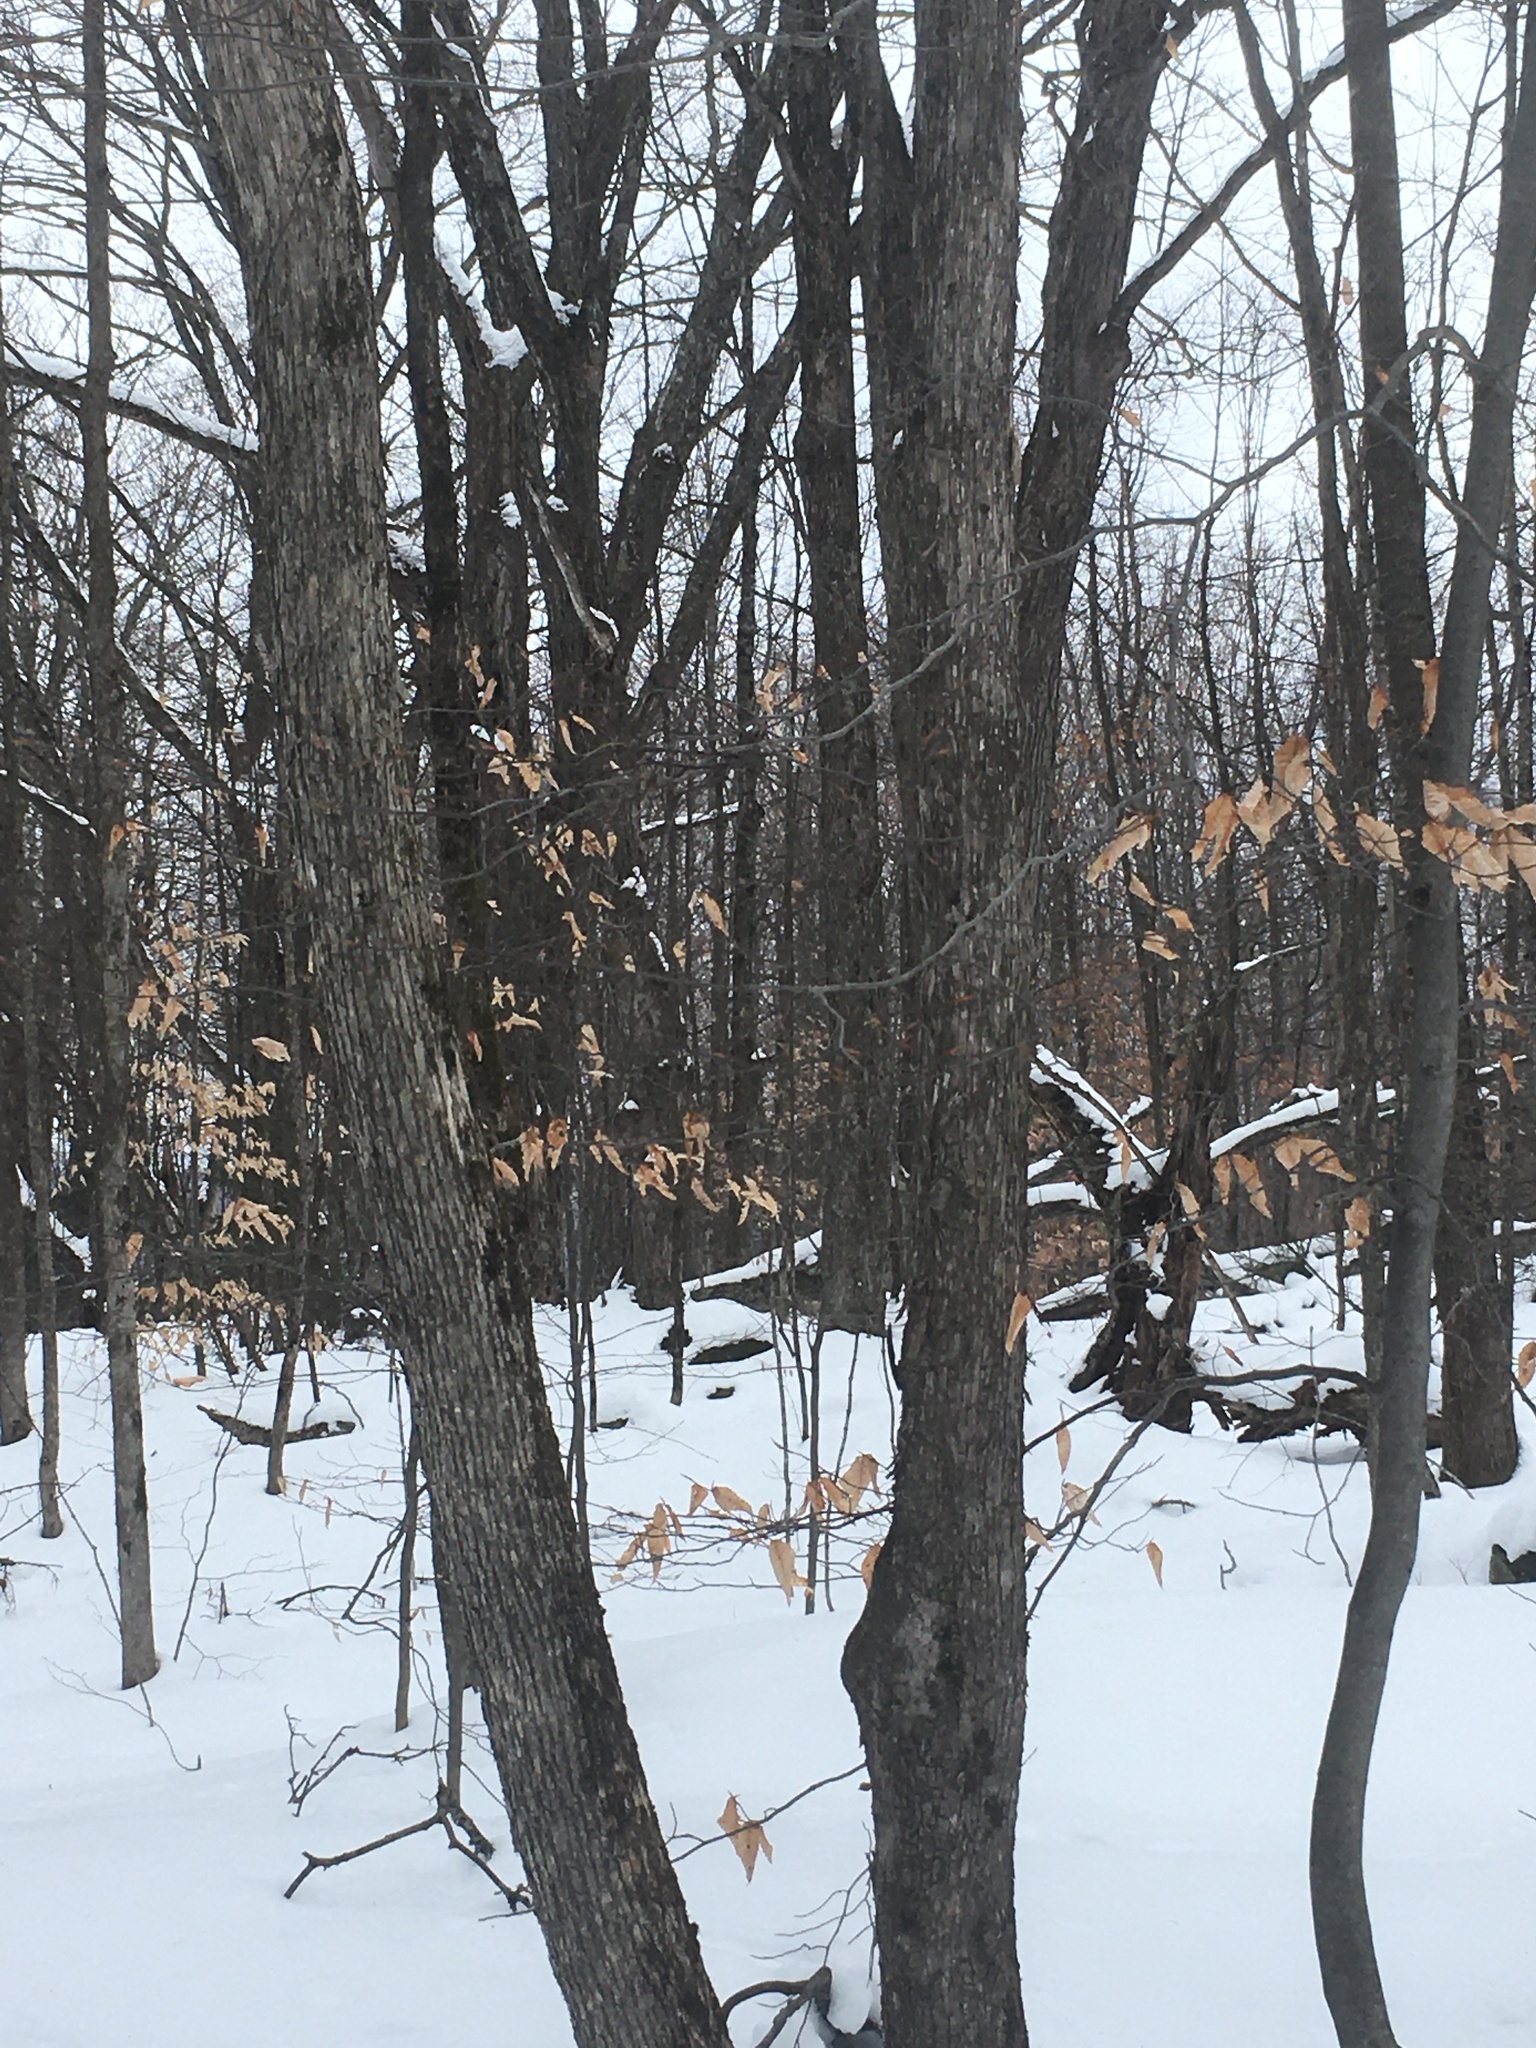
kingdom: Plantae
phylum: Tracheophyta
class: Magnoliopsida
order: Fagales
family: Betulaceae
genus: Ostrya
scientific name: Ostrya virginiana
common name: Ironwood
